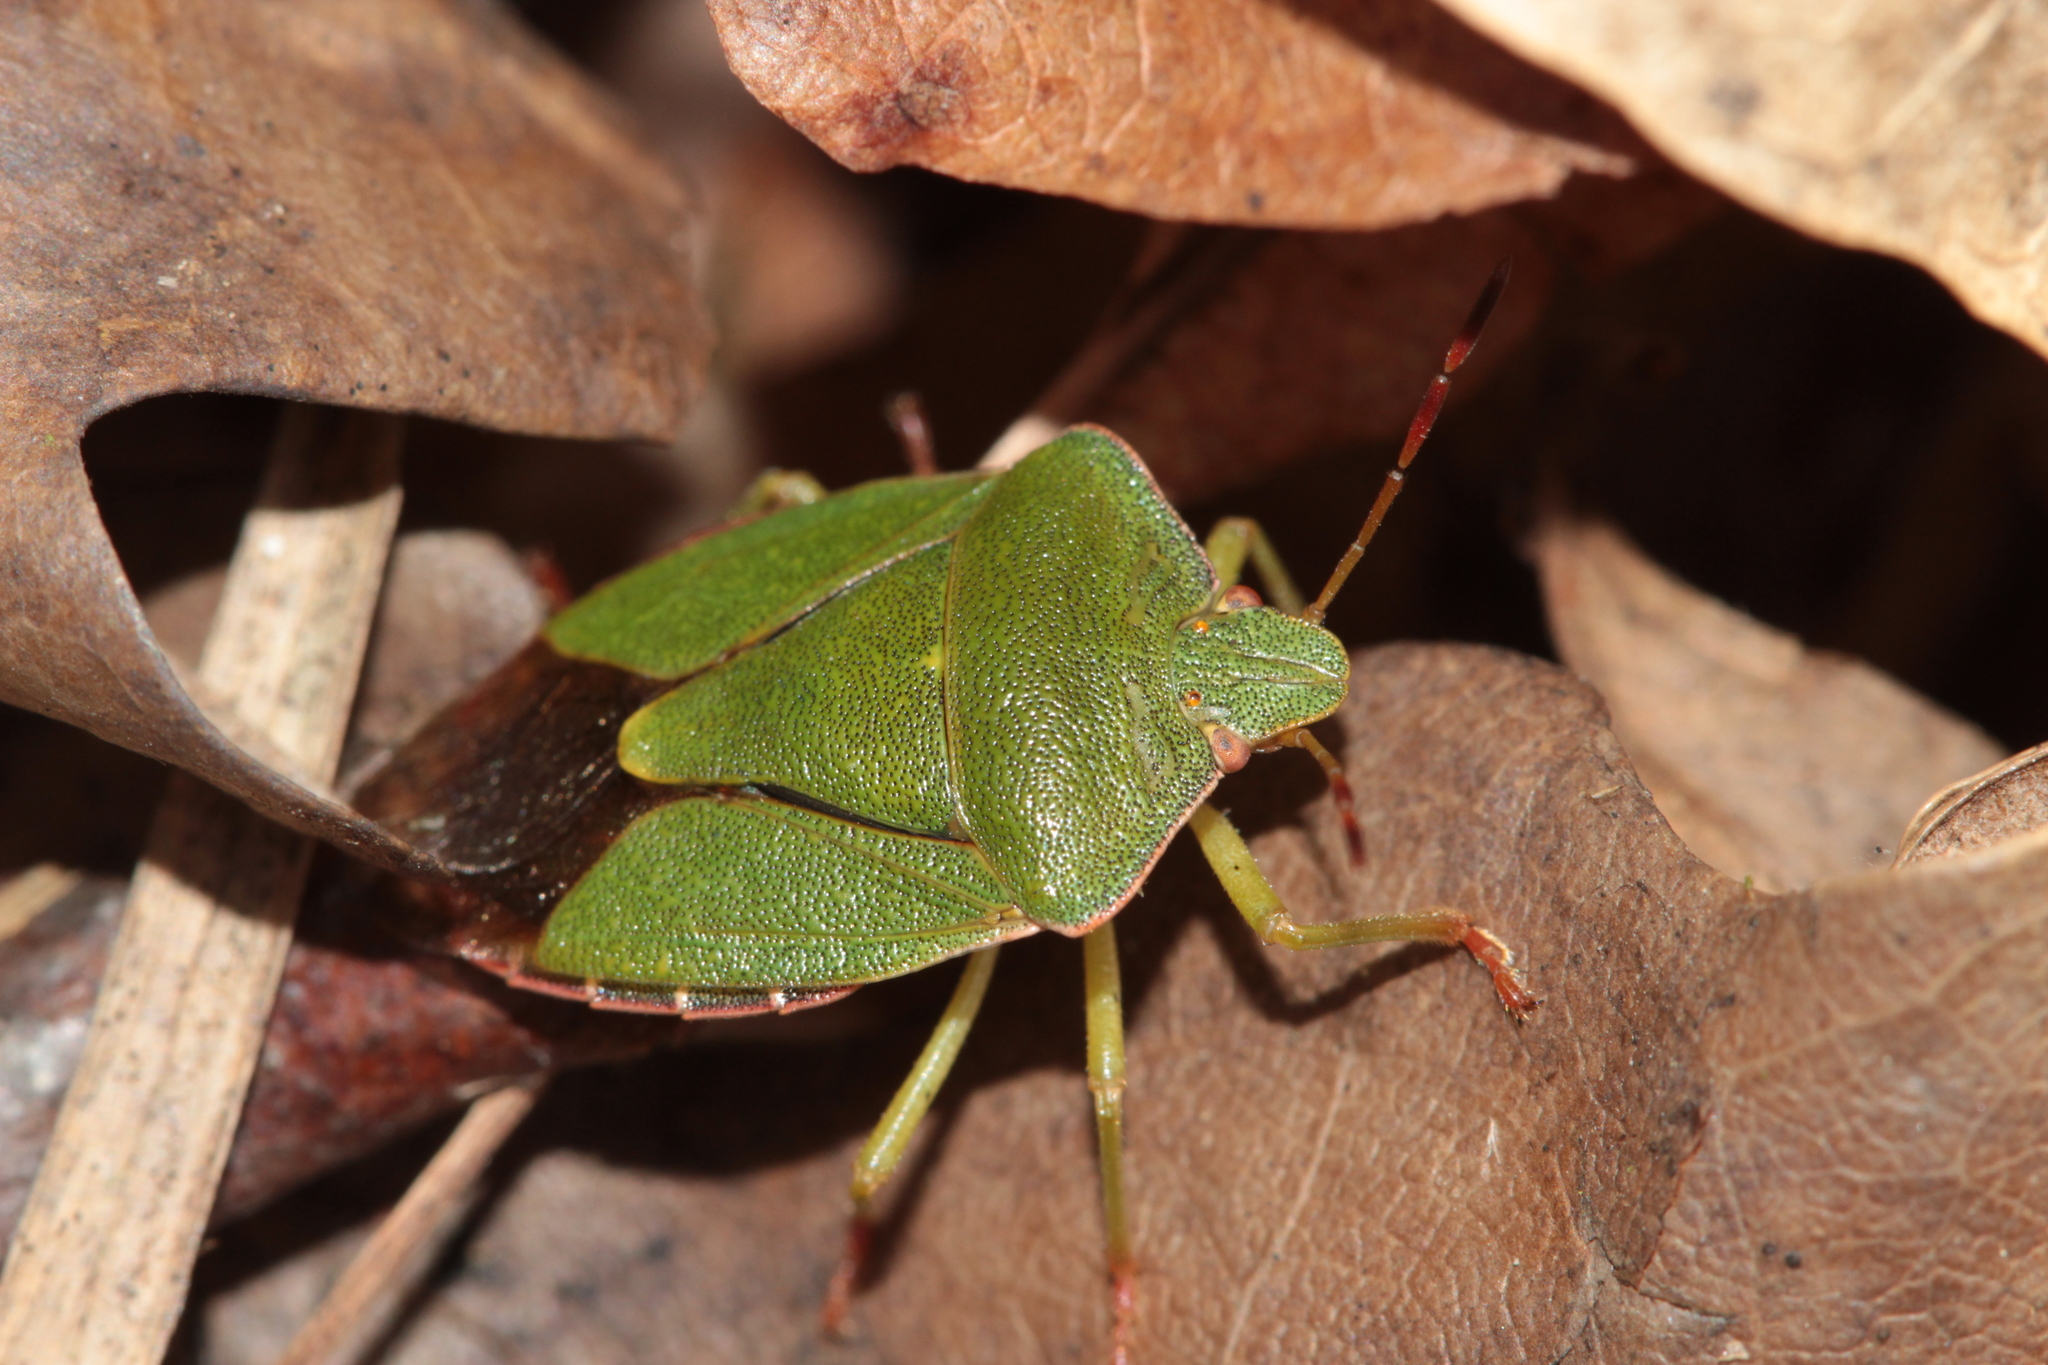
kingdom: Animalia
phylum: Arthropoda
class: Insecta
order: Hemiptera
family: Pentatomidae
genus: Palomena
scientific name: Palomena prasina
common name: Green shieldbug
